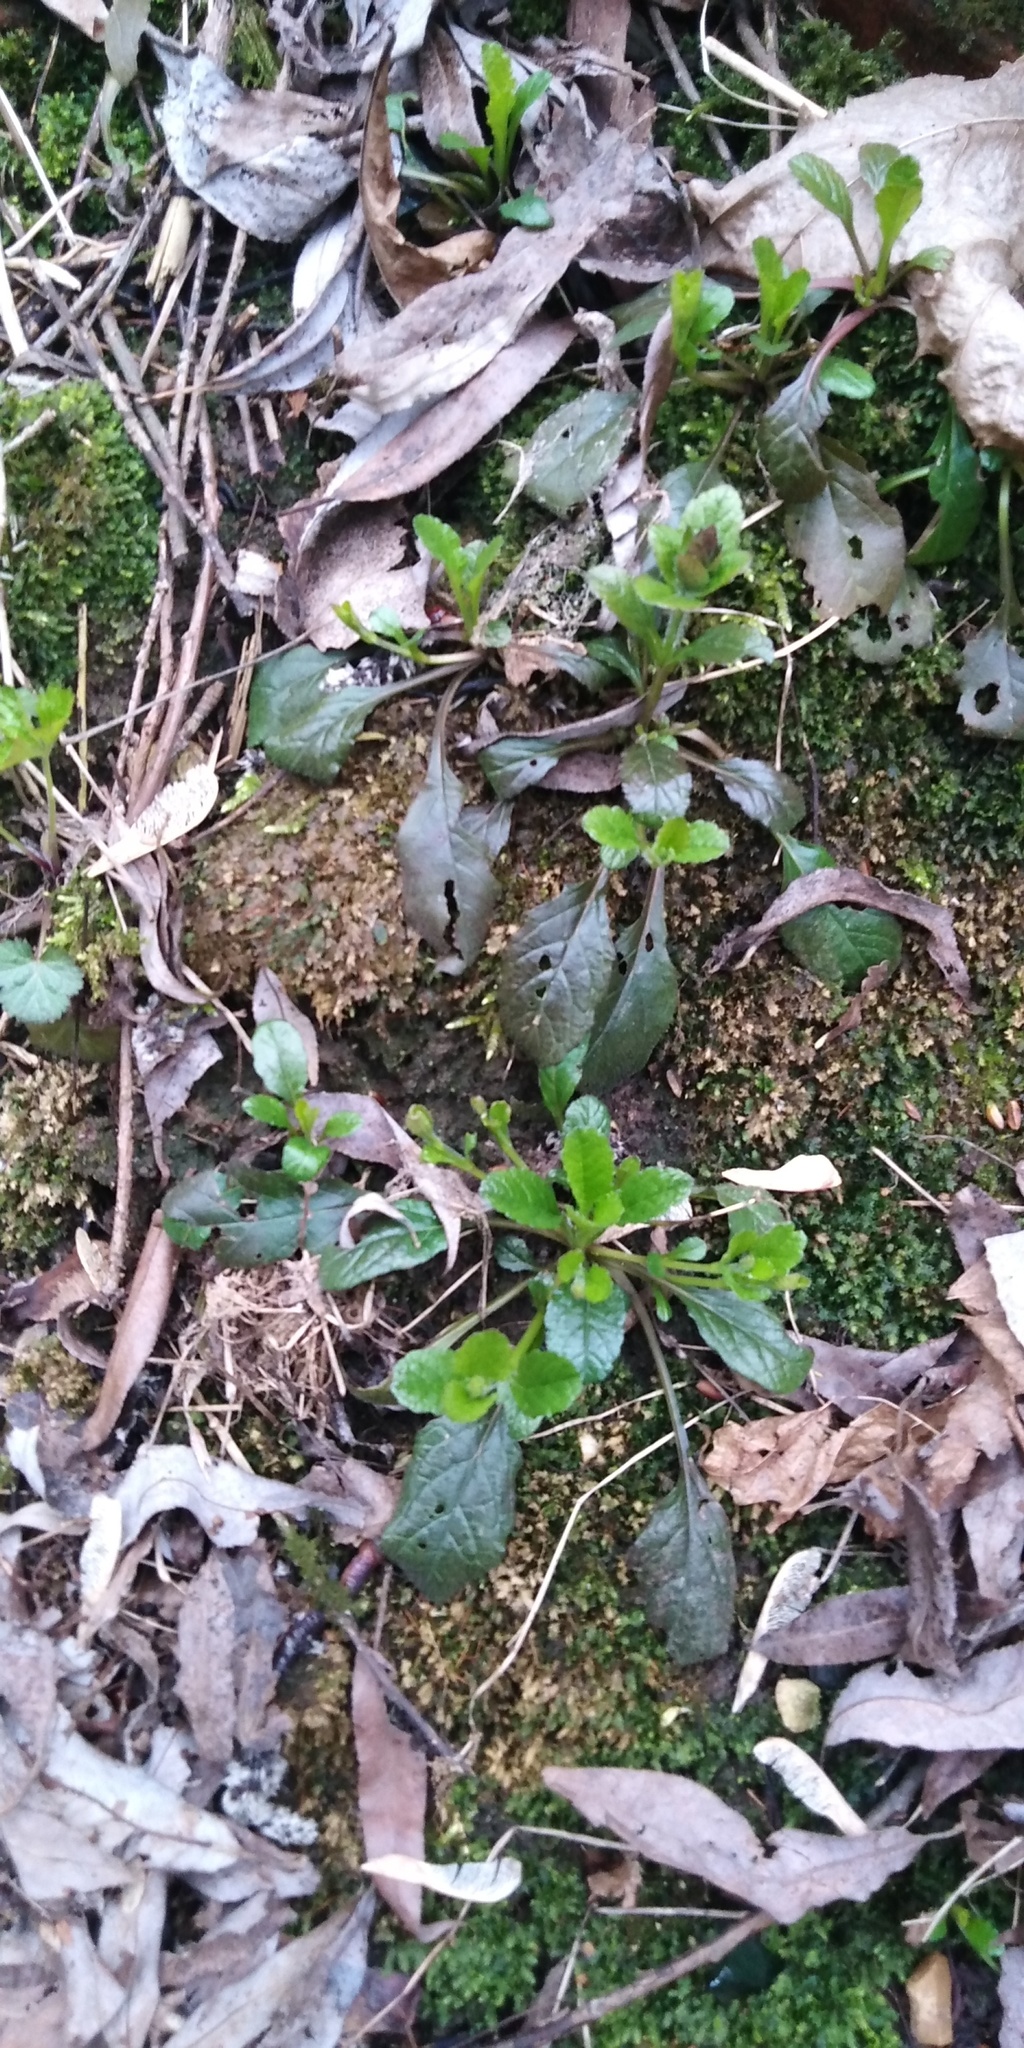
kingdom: Plantae
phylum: Tracheophyta
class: Magnoliopsida
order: Lamiales
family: Lamiaceae
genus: Ajuga
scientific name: Ajuga reptans
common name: Bugle
